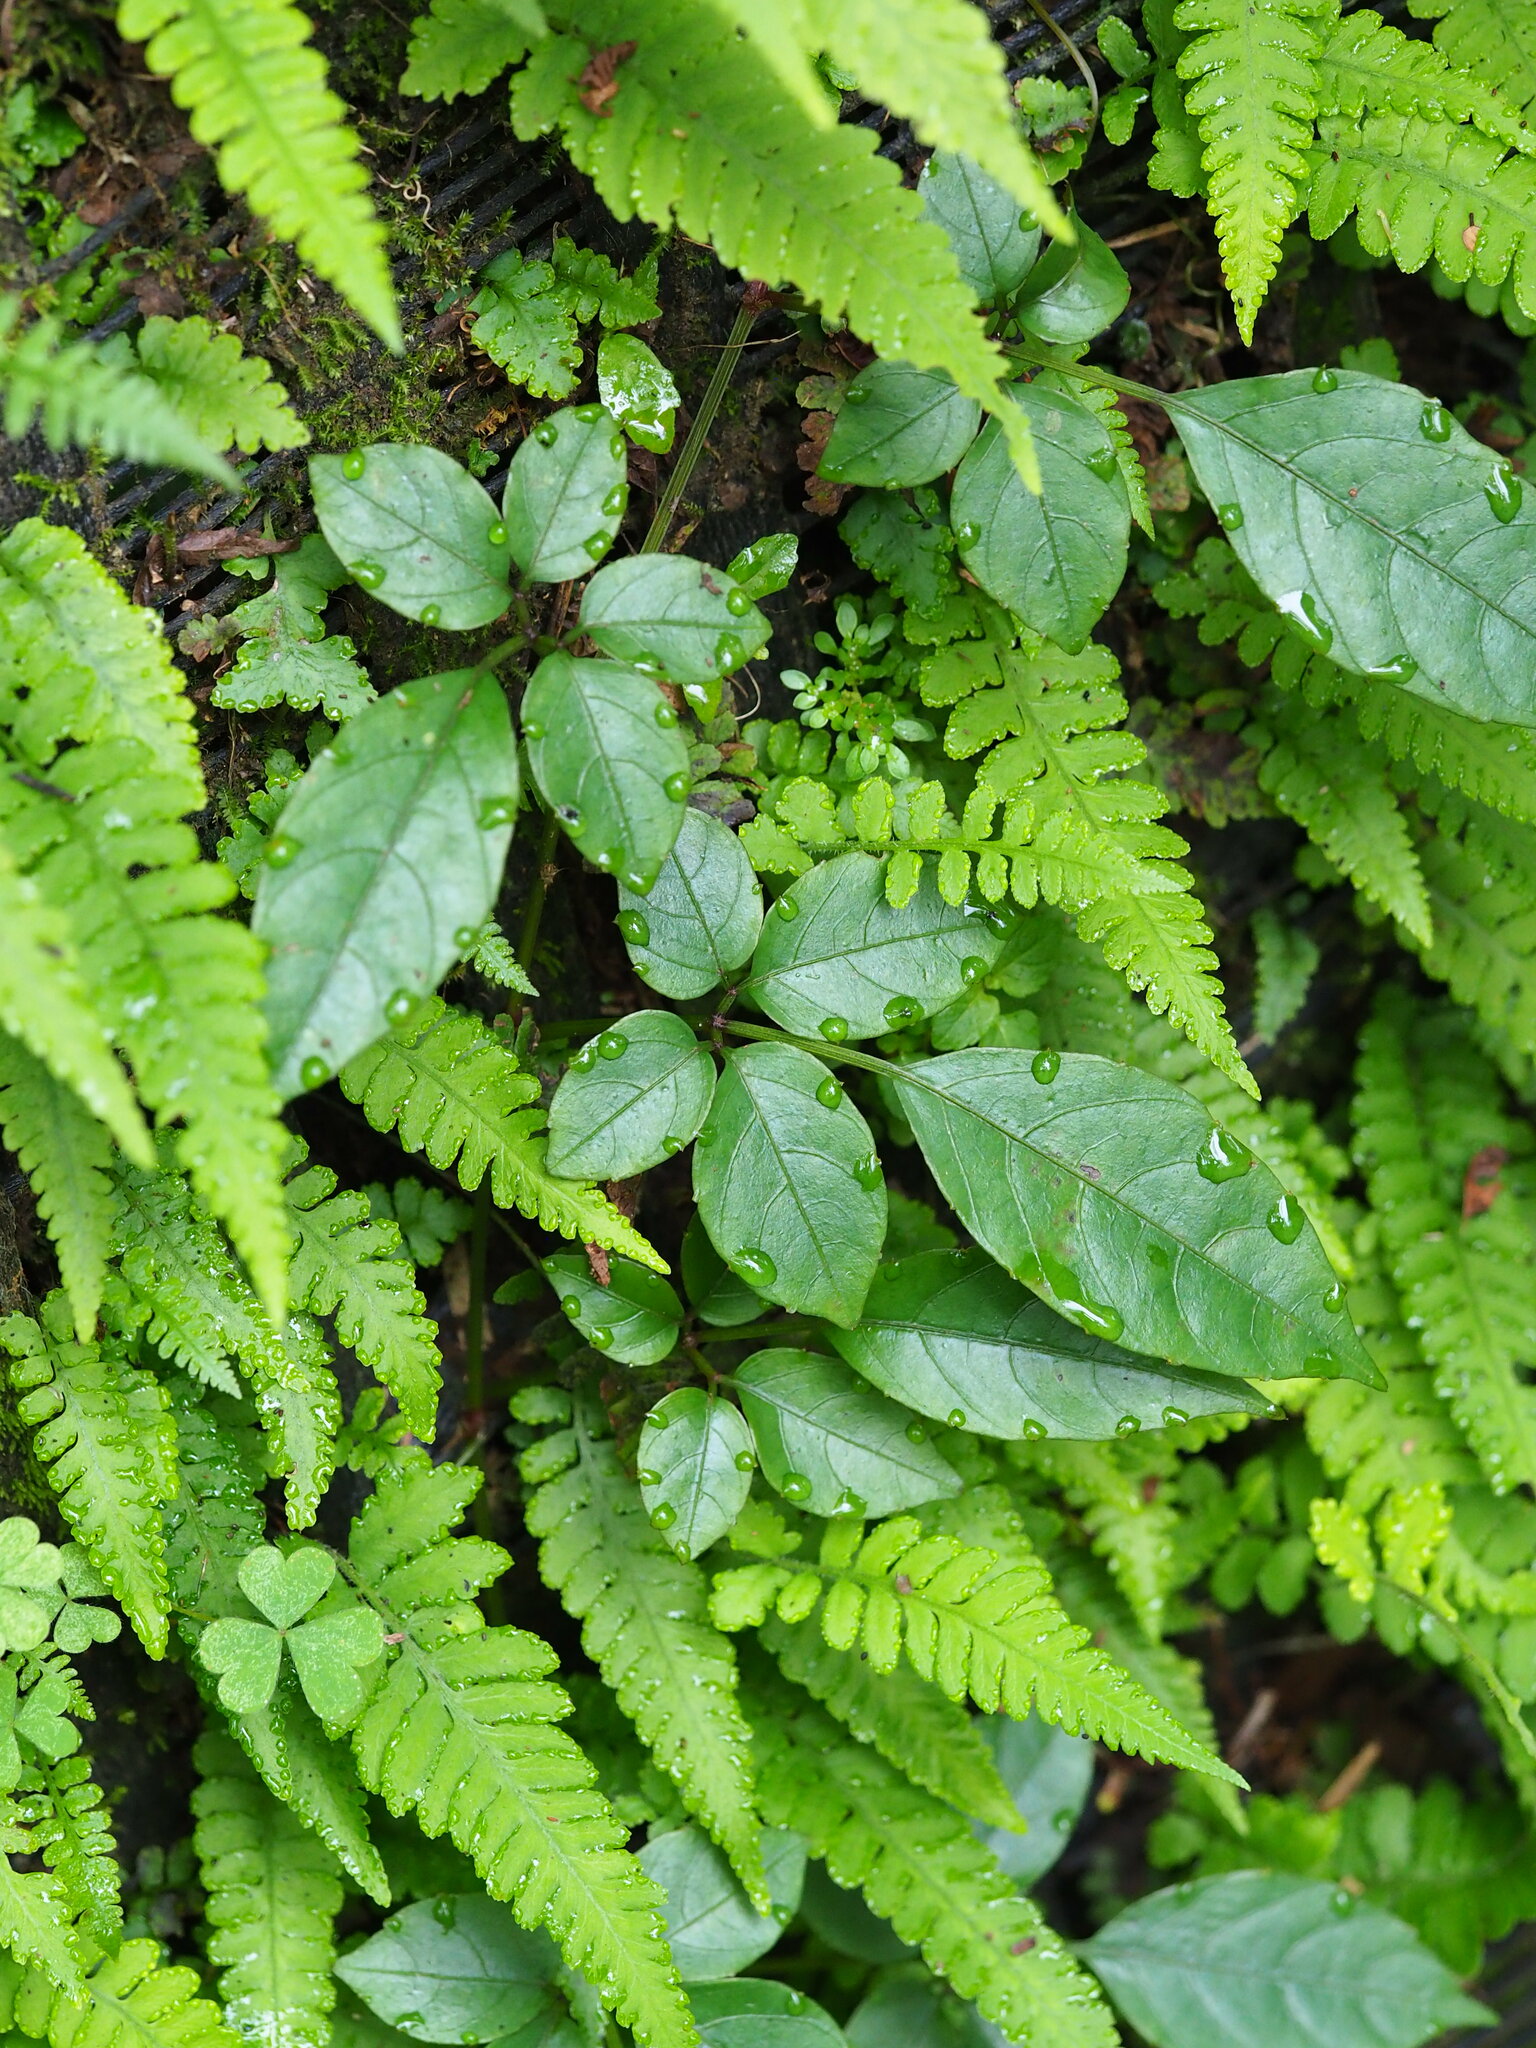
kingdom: Plantae
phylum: Tracheophyta
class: Magnoliopsida
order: Vitales
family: Vitaceae
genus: Causonis
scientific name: Causonis corniculata
